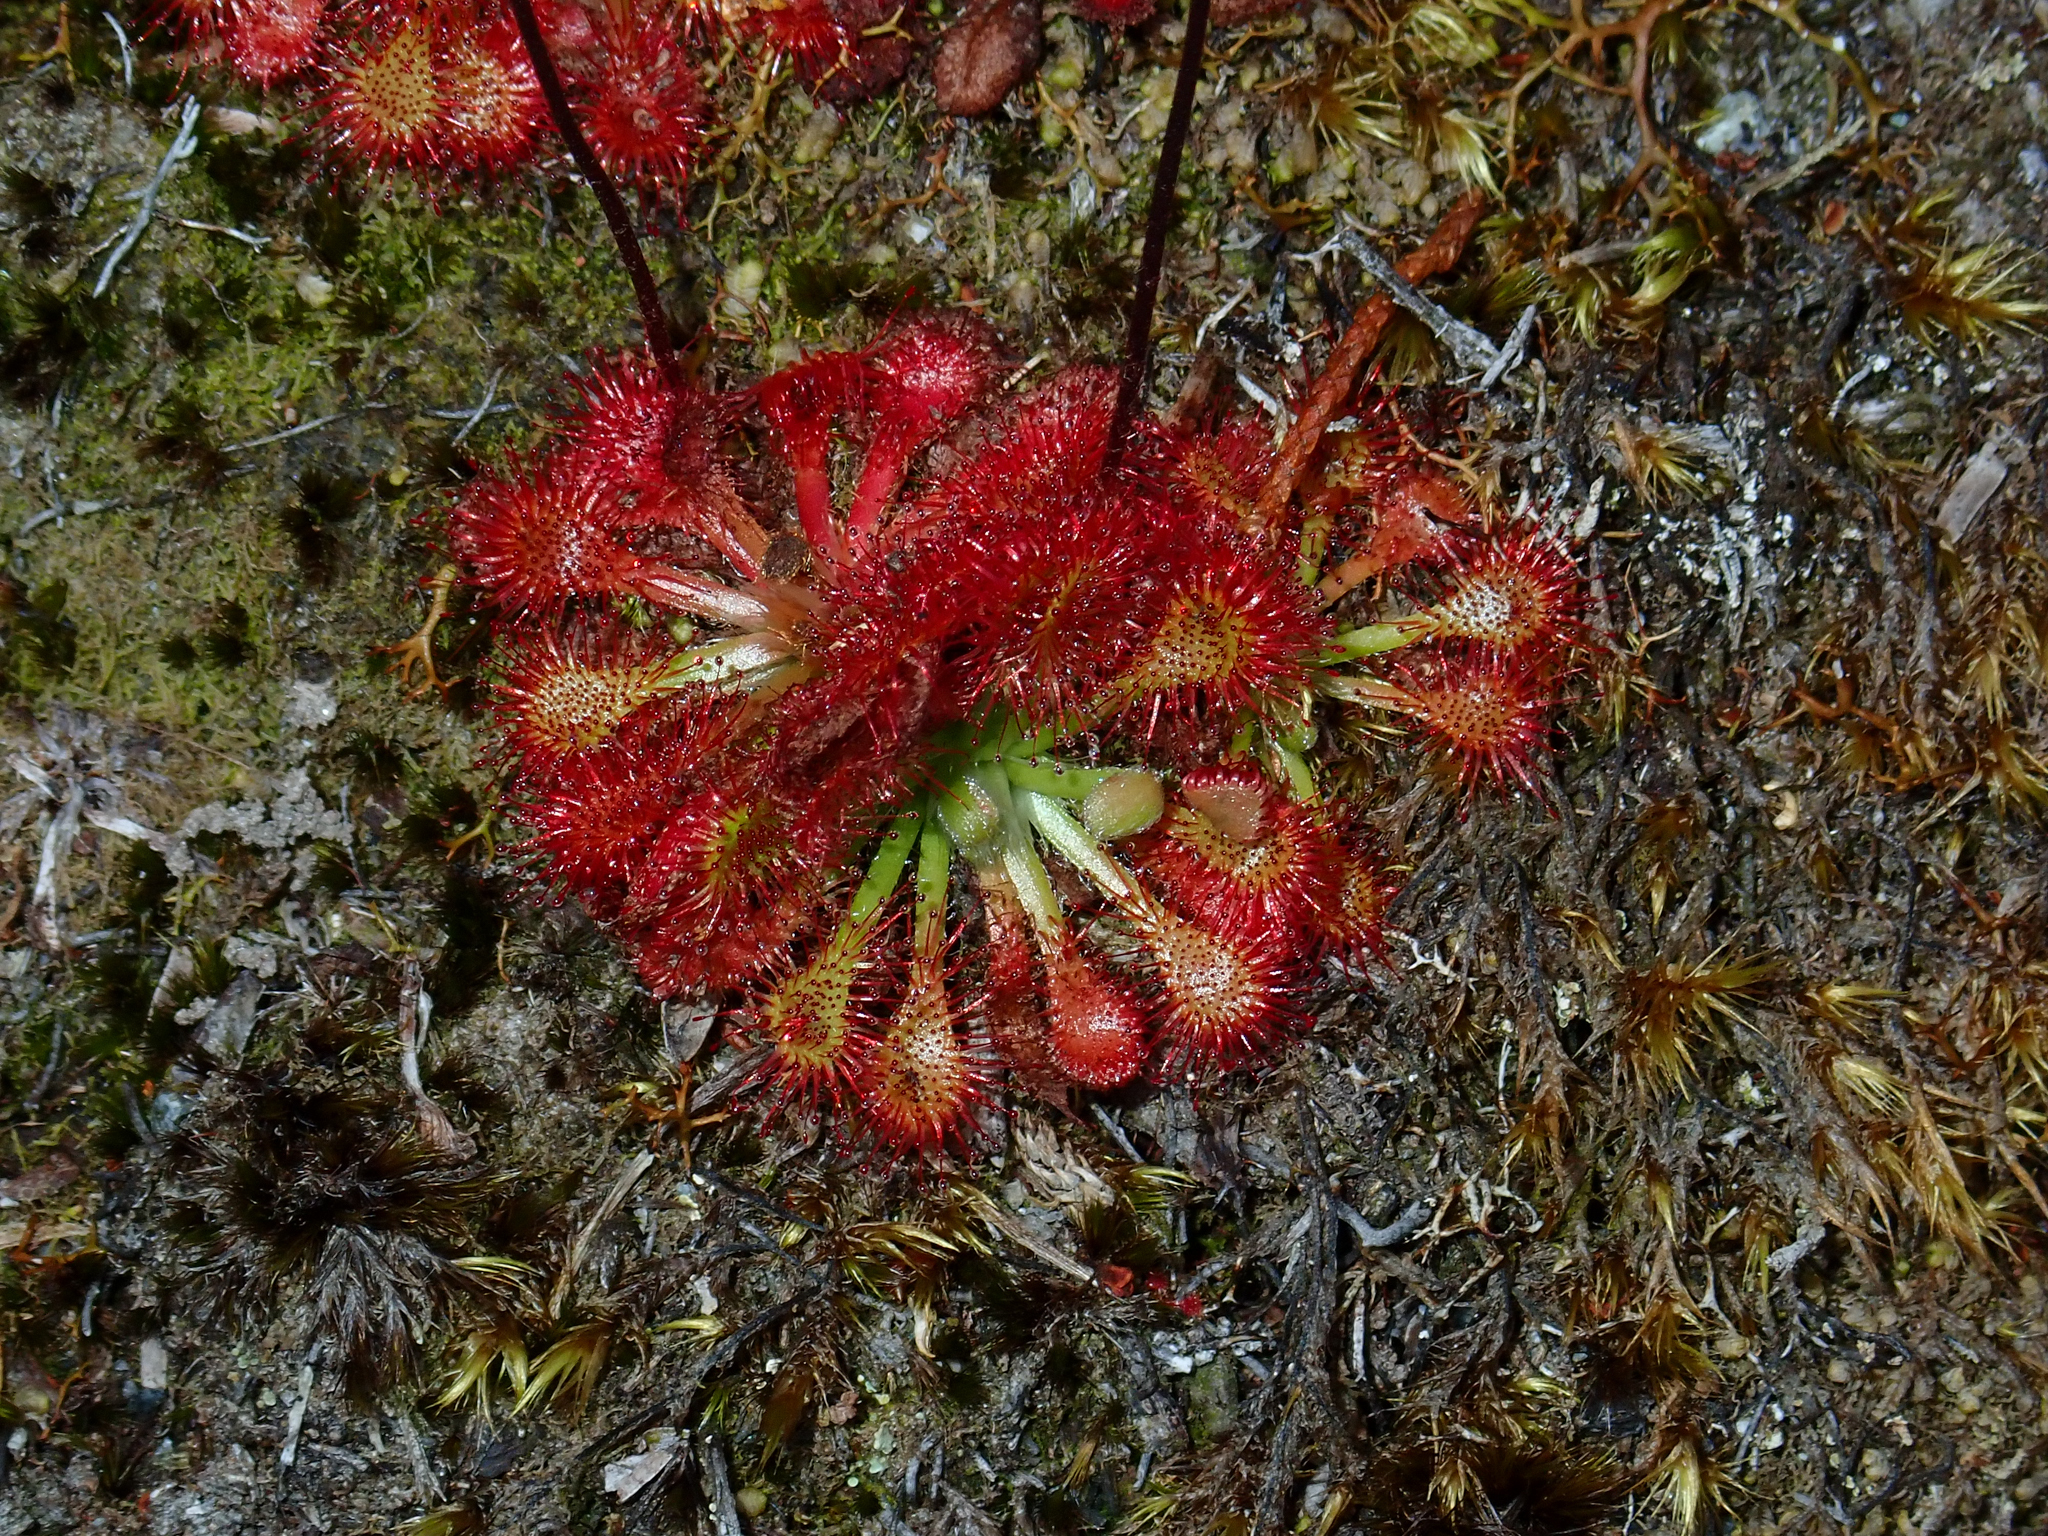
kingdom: Plantae
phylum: Tracheophyta
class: Magnoliopsida
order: Caryophyllales
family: Droseraceae
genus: Drosera
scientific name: Drosera spatulata
